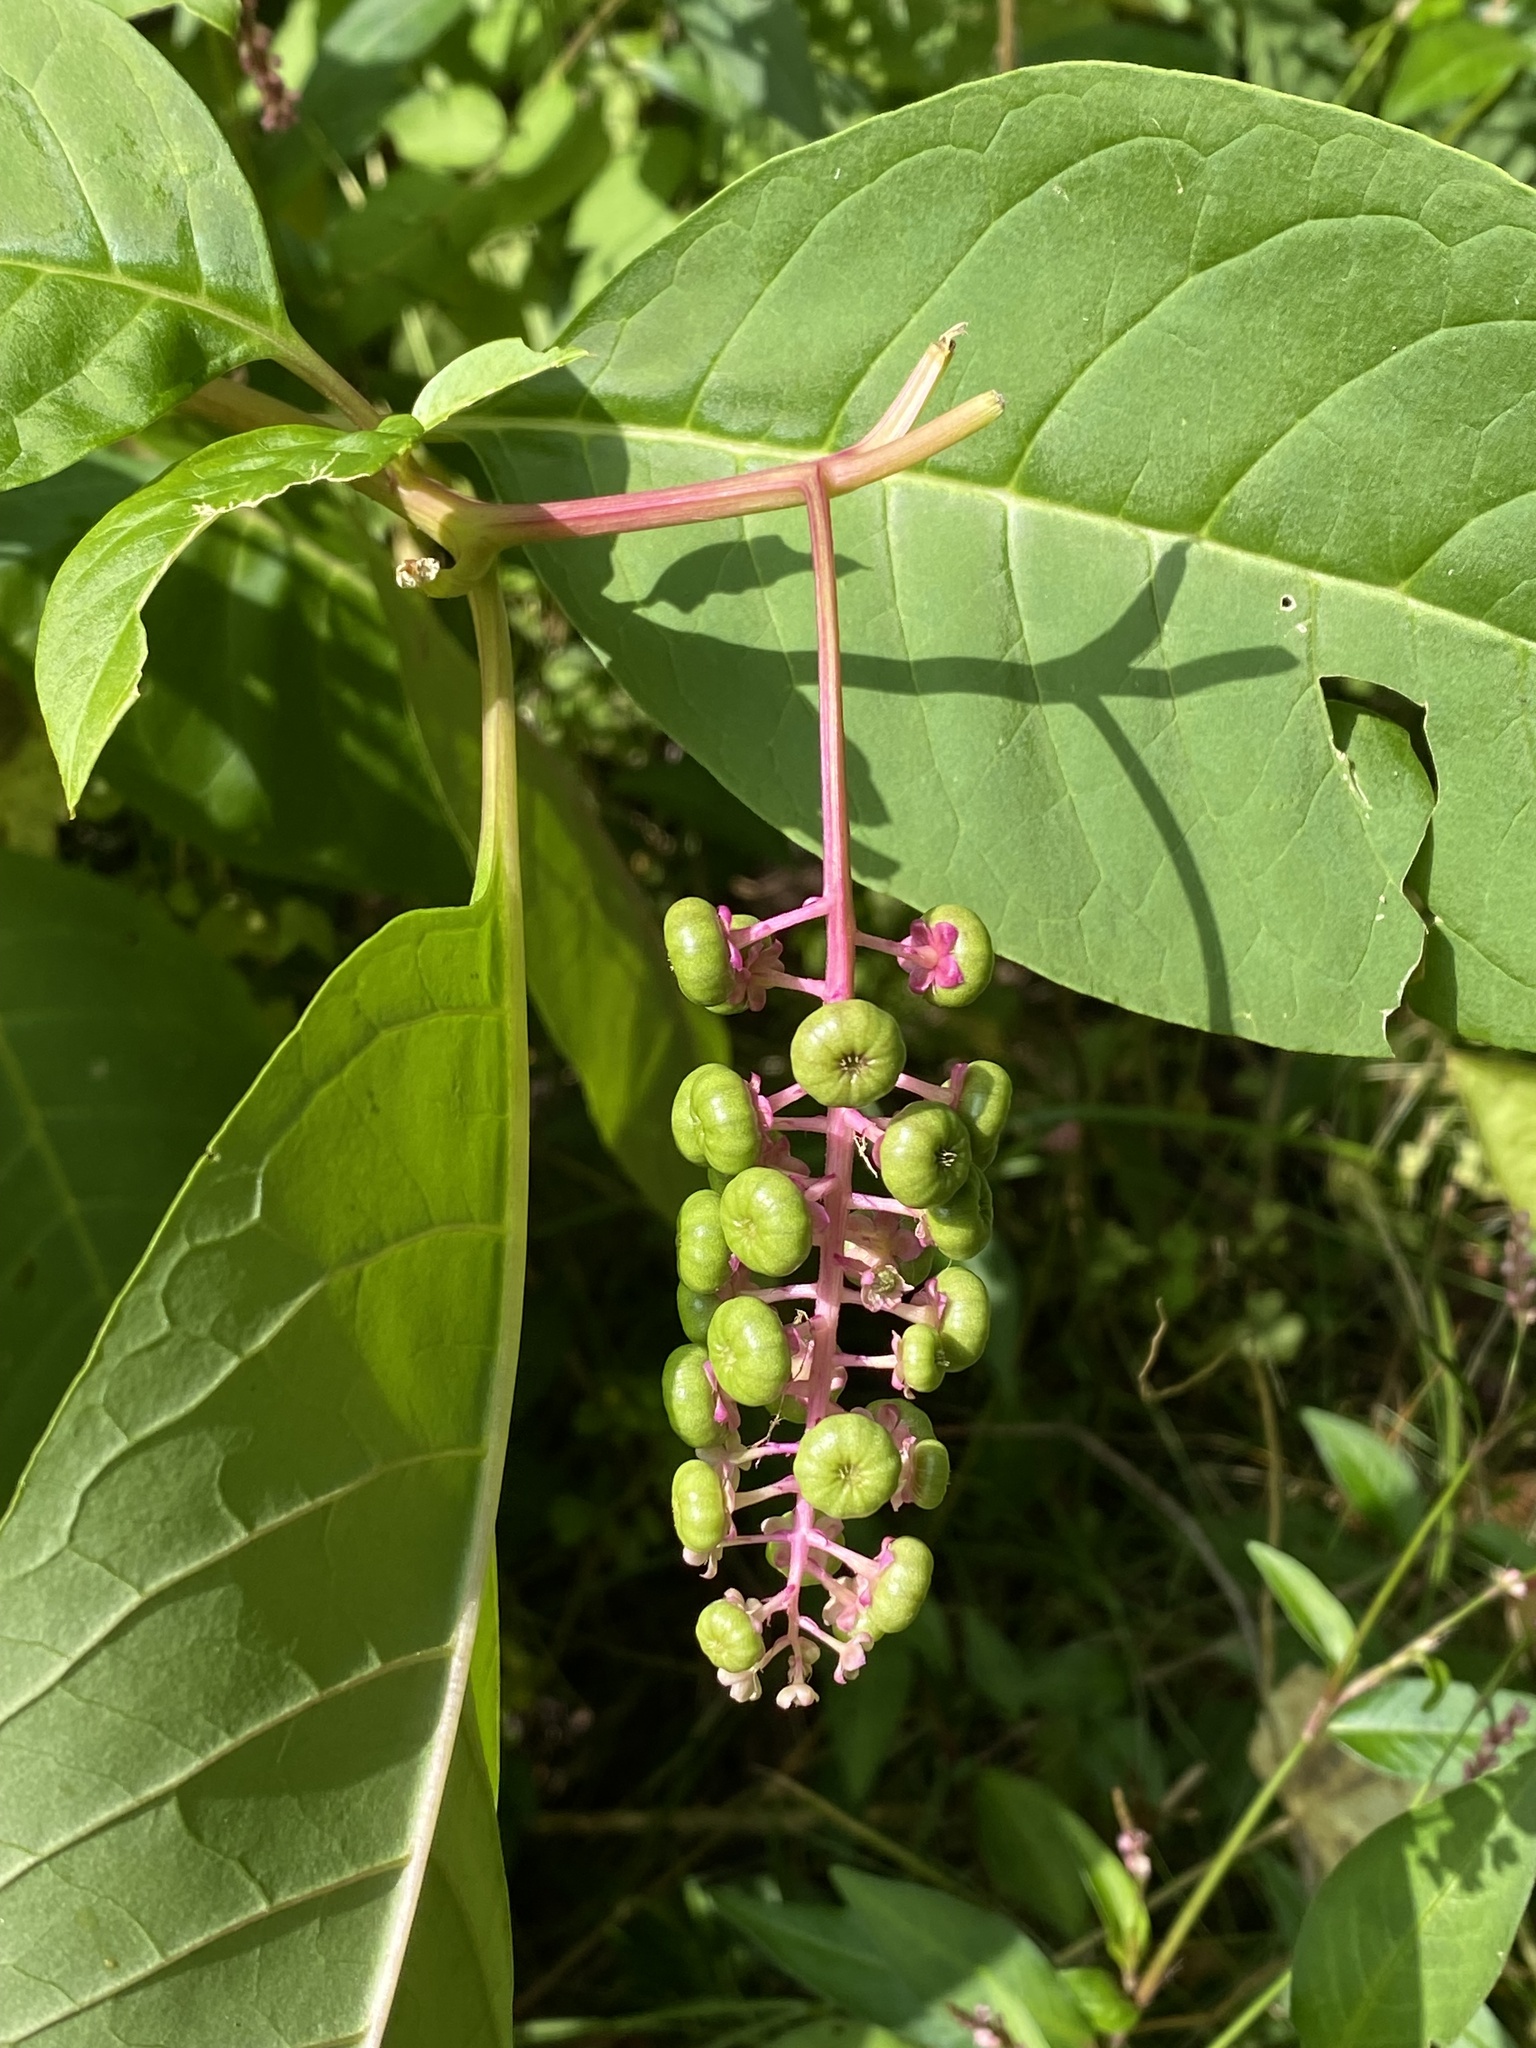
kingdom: Plantae
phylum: Tracheophyta
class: Magnoliopsida
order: Caryophyllales
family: Phytolaccaceae
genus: Phytolacca
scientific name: Phytolacca americana
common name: American pokeweed
